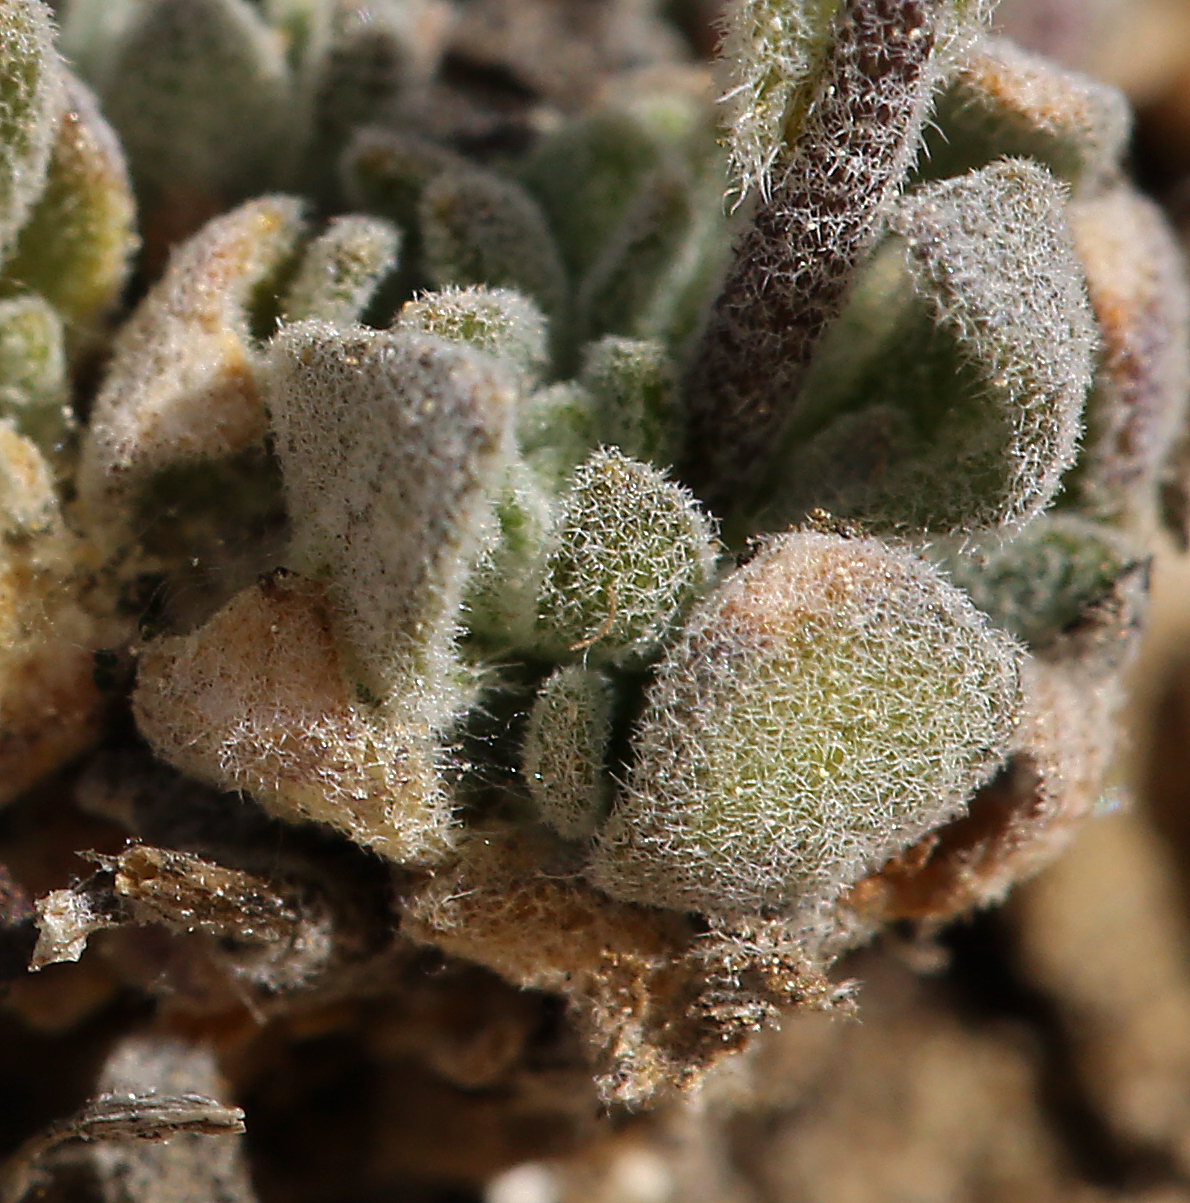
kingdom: Plantae
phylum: Tracheophyta
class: Magnoliopsida
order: Brassicales
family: Brassicaceae
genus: Draba
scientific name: Draba breweri
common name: Cushion draba
